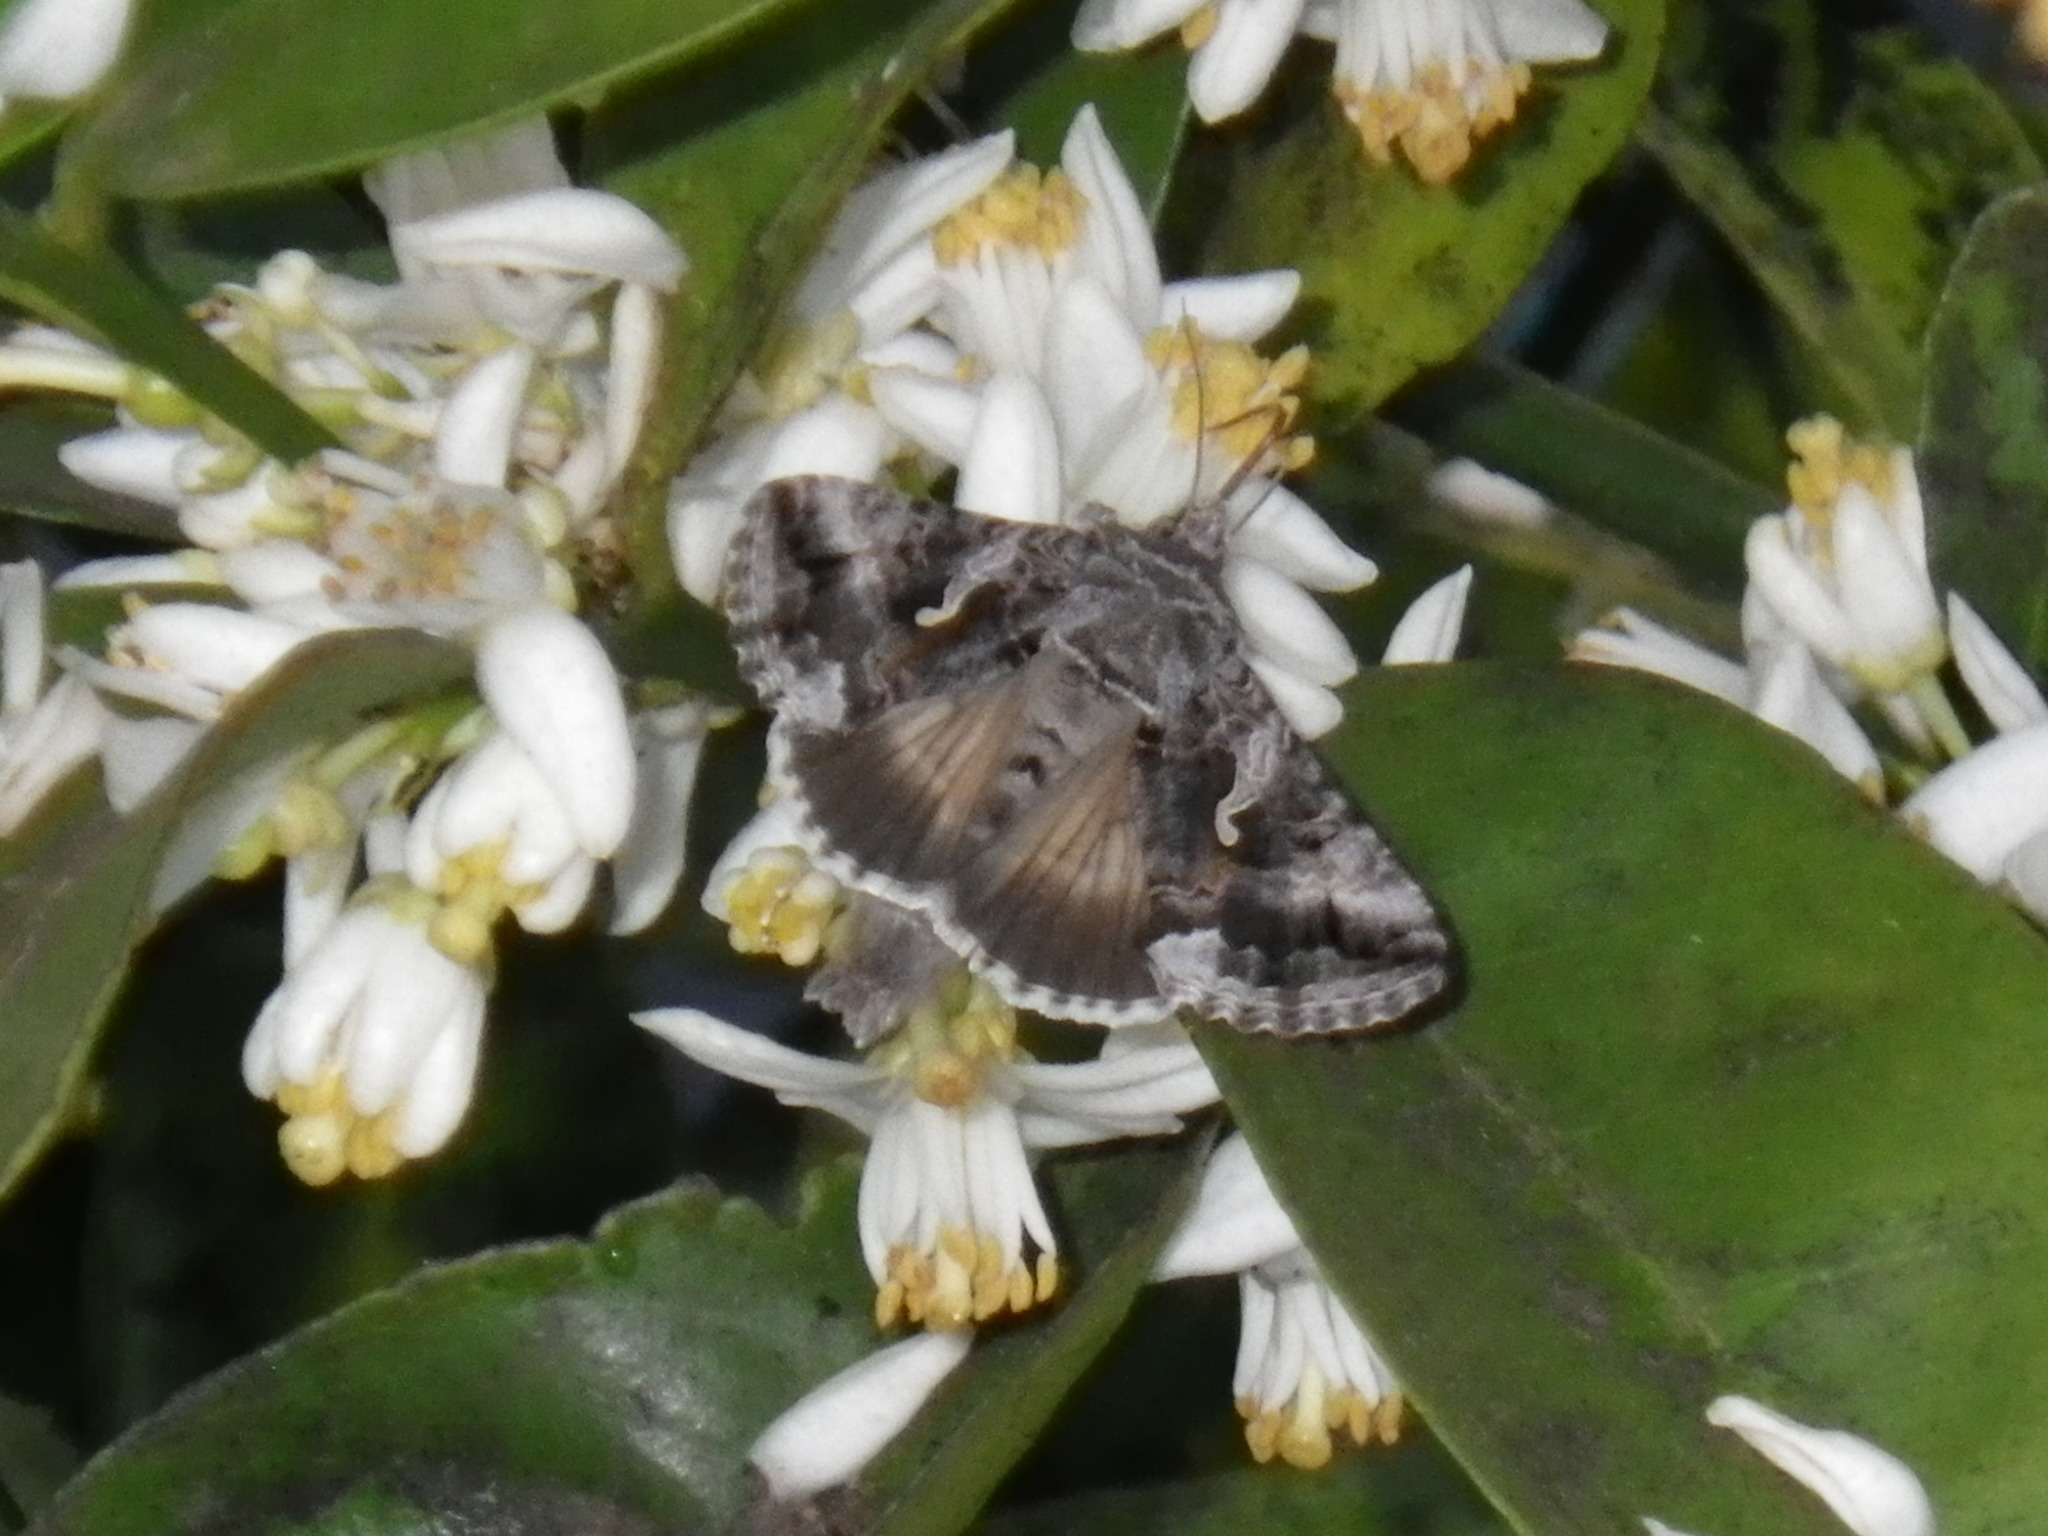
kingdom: Animalia
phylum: Arthropoda
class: Insecta
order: Lepidoptera
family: Noctuidae
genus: Autographa
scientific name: Autographa californica
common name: Alfalfa looper
